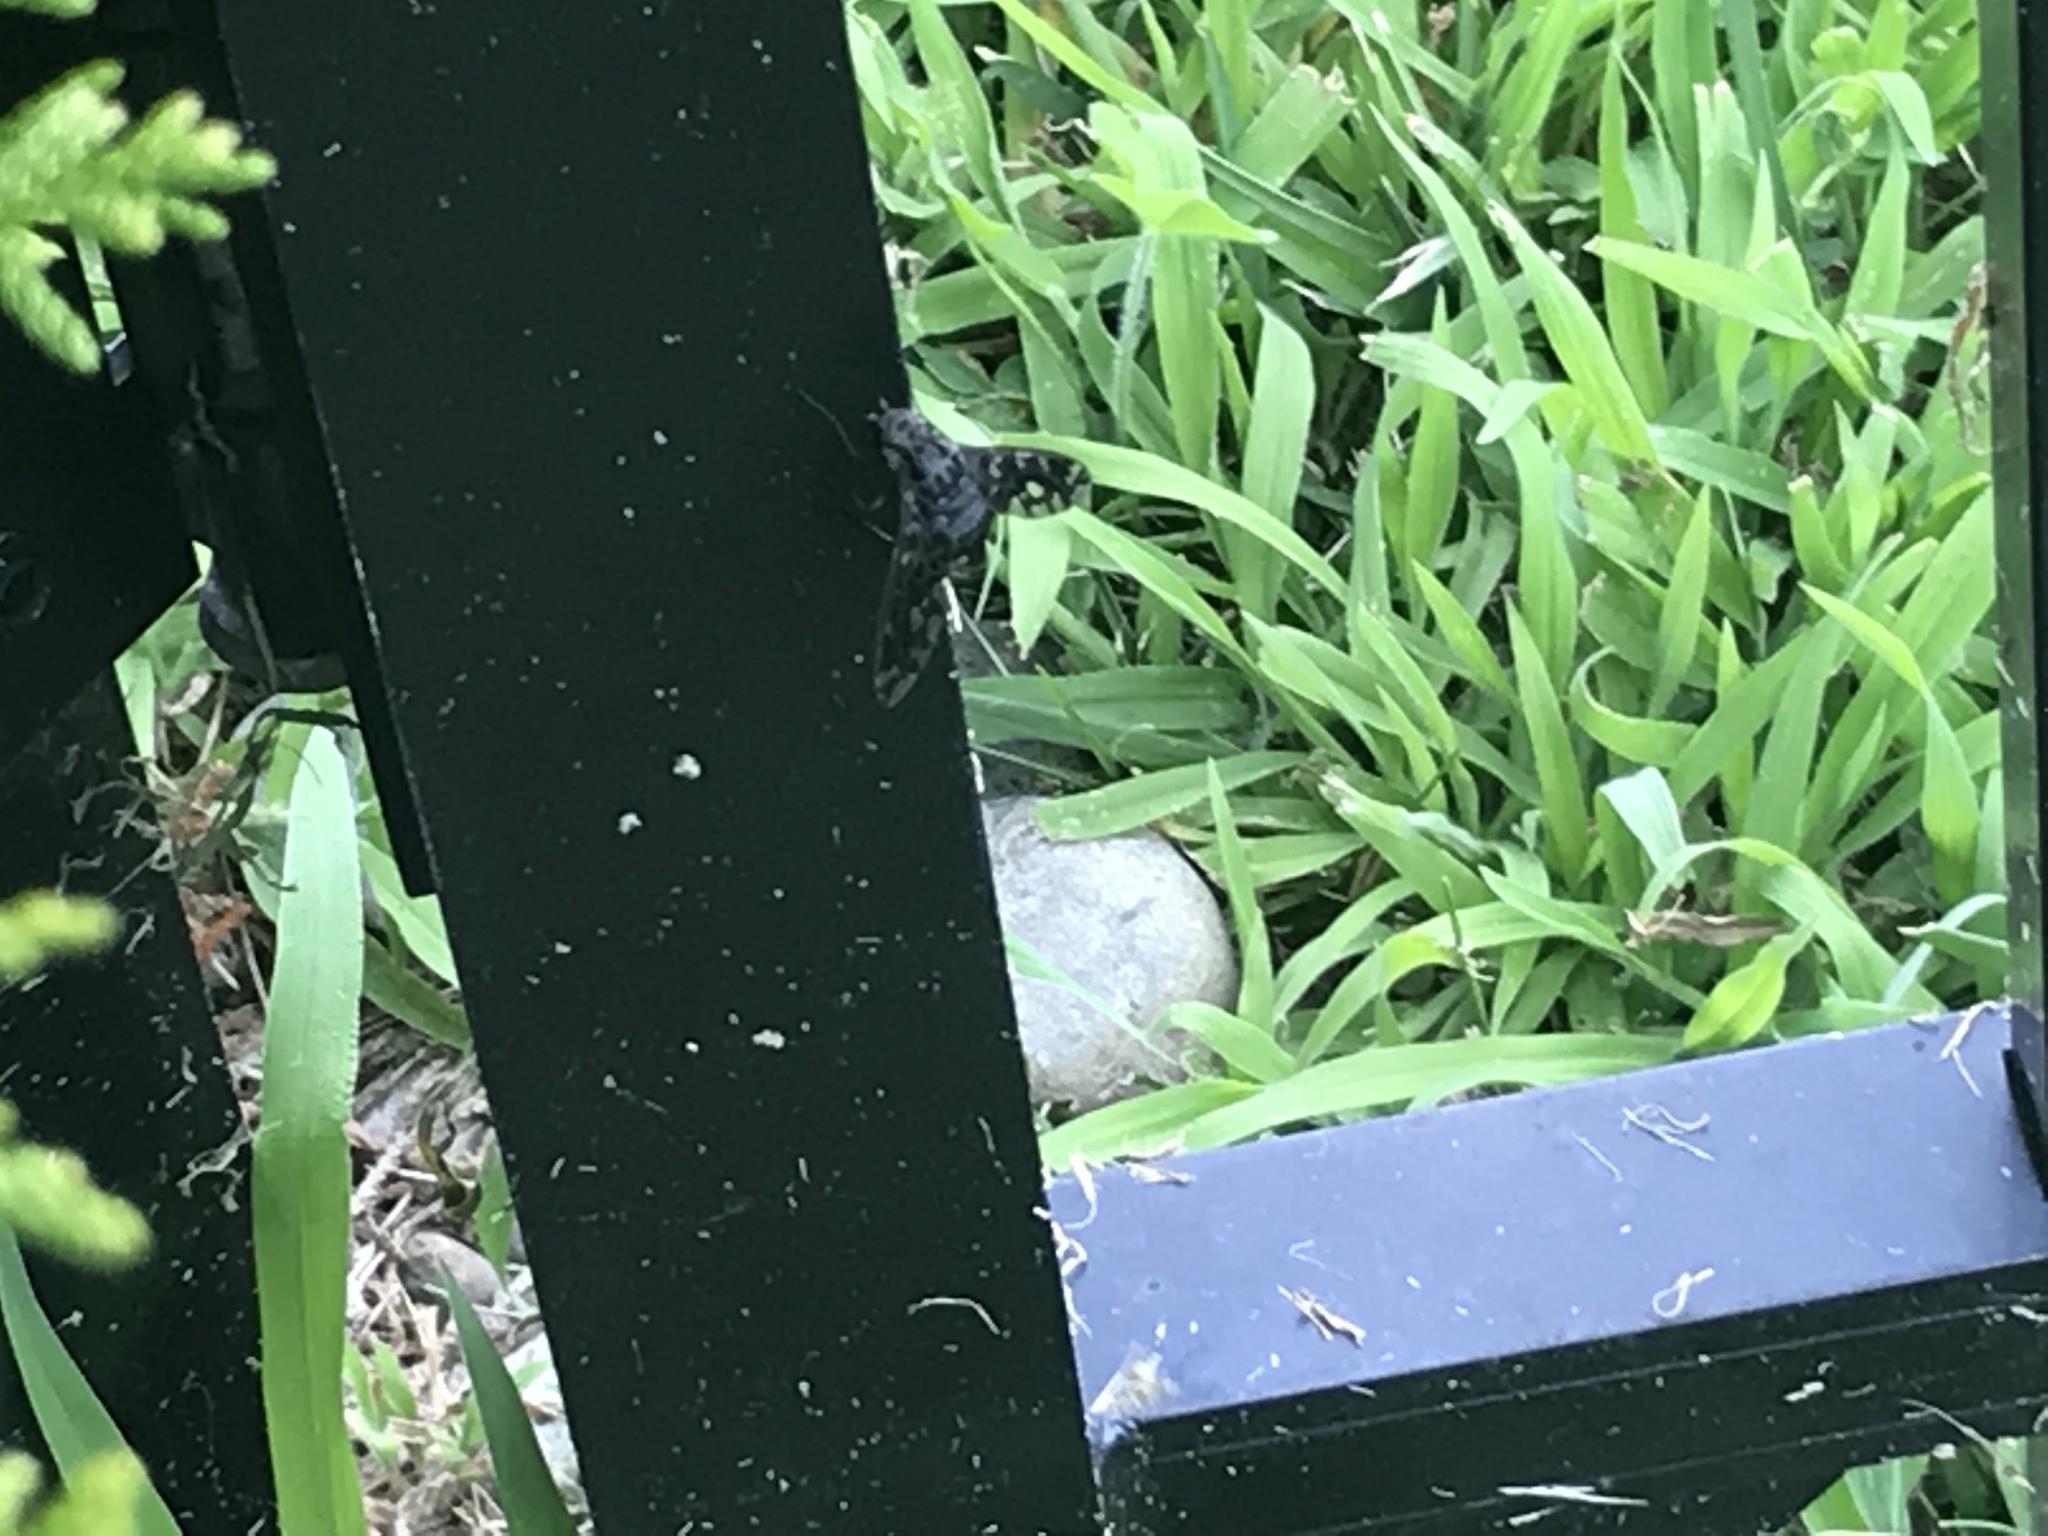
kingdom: Animalia
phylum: Arthropoda
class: Insecta
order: Diptera
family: Bombyliidae
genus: Xenox
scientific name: Xenox tigrinus
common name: Tiger bee fly
